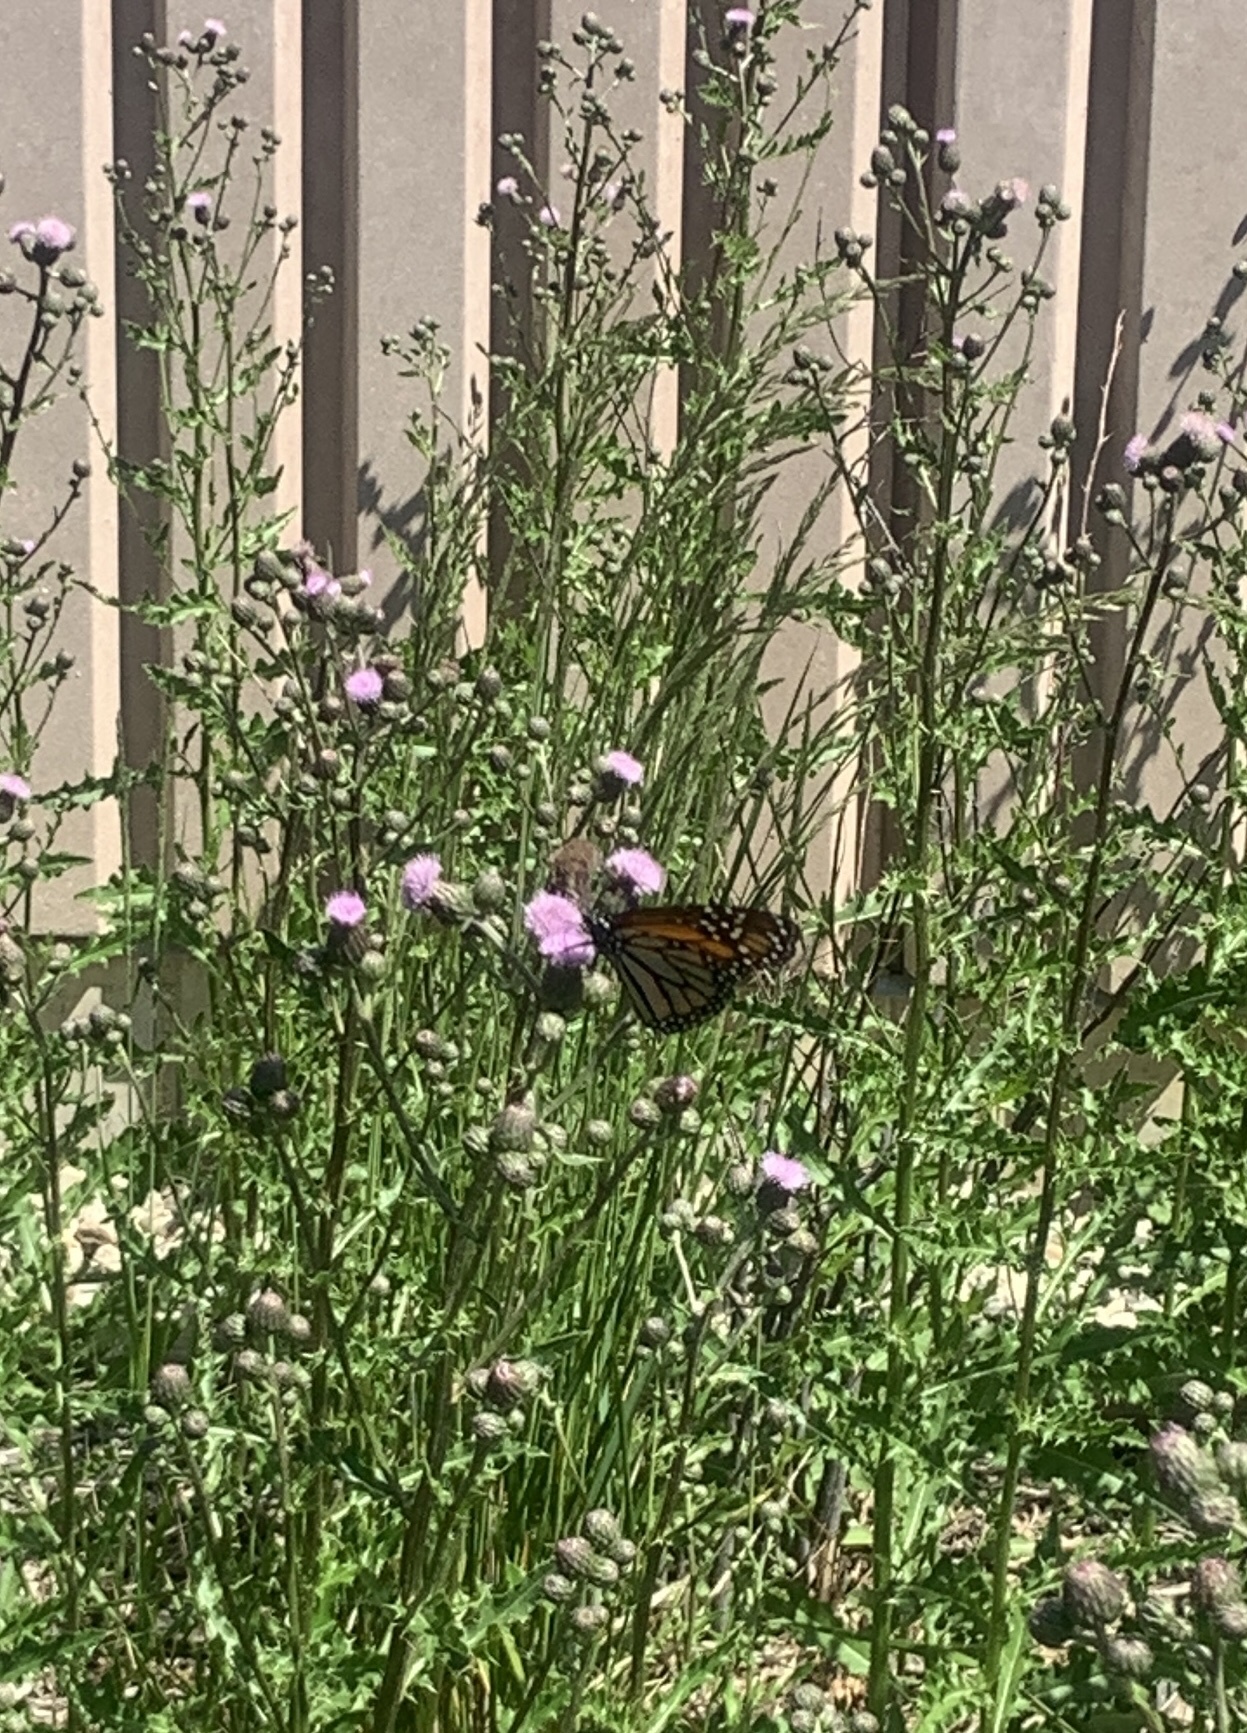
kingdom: Animalia
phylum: Arthropoda
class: Insecta
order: Lepidoptera
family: Nymphalidae
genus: Danaus
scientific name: Danaus plexippus
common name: Monarch
